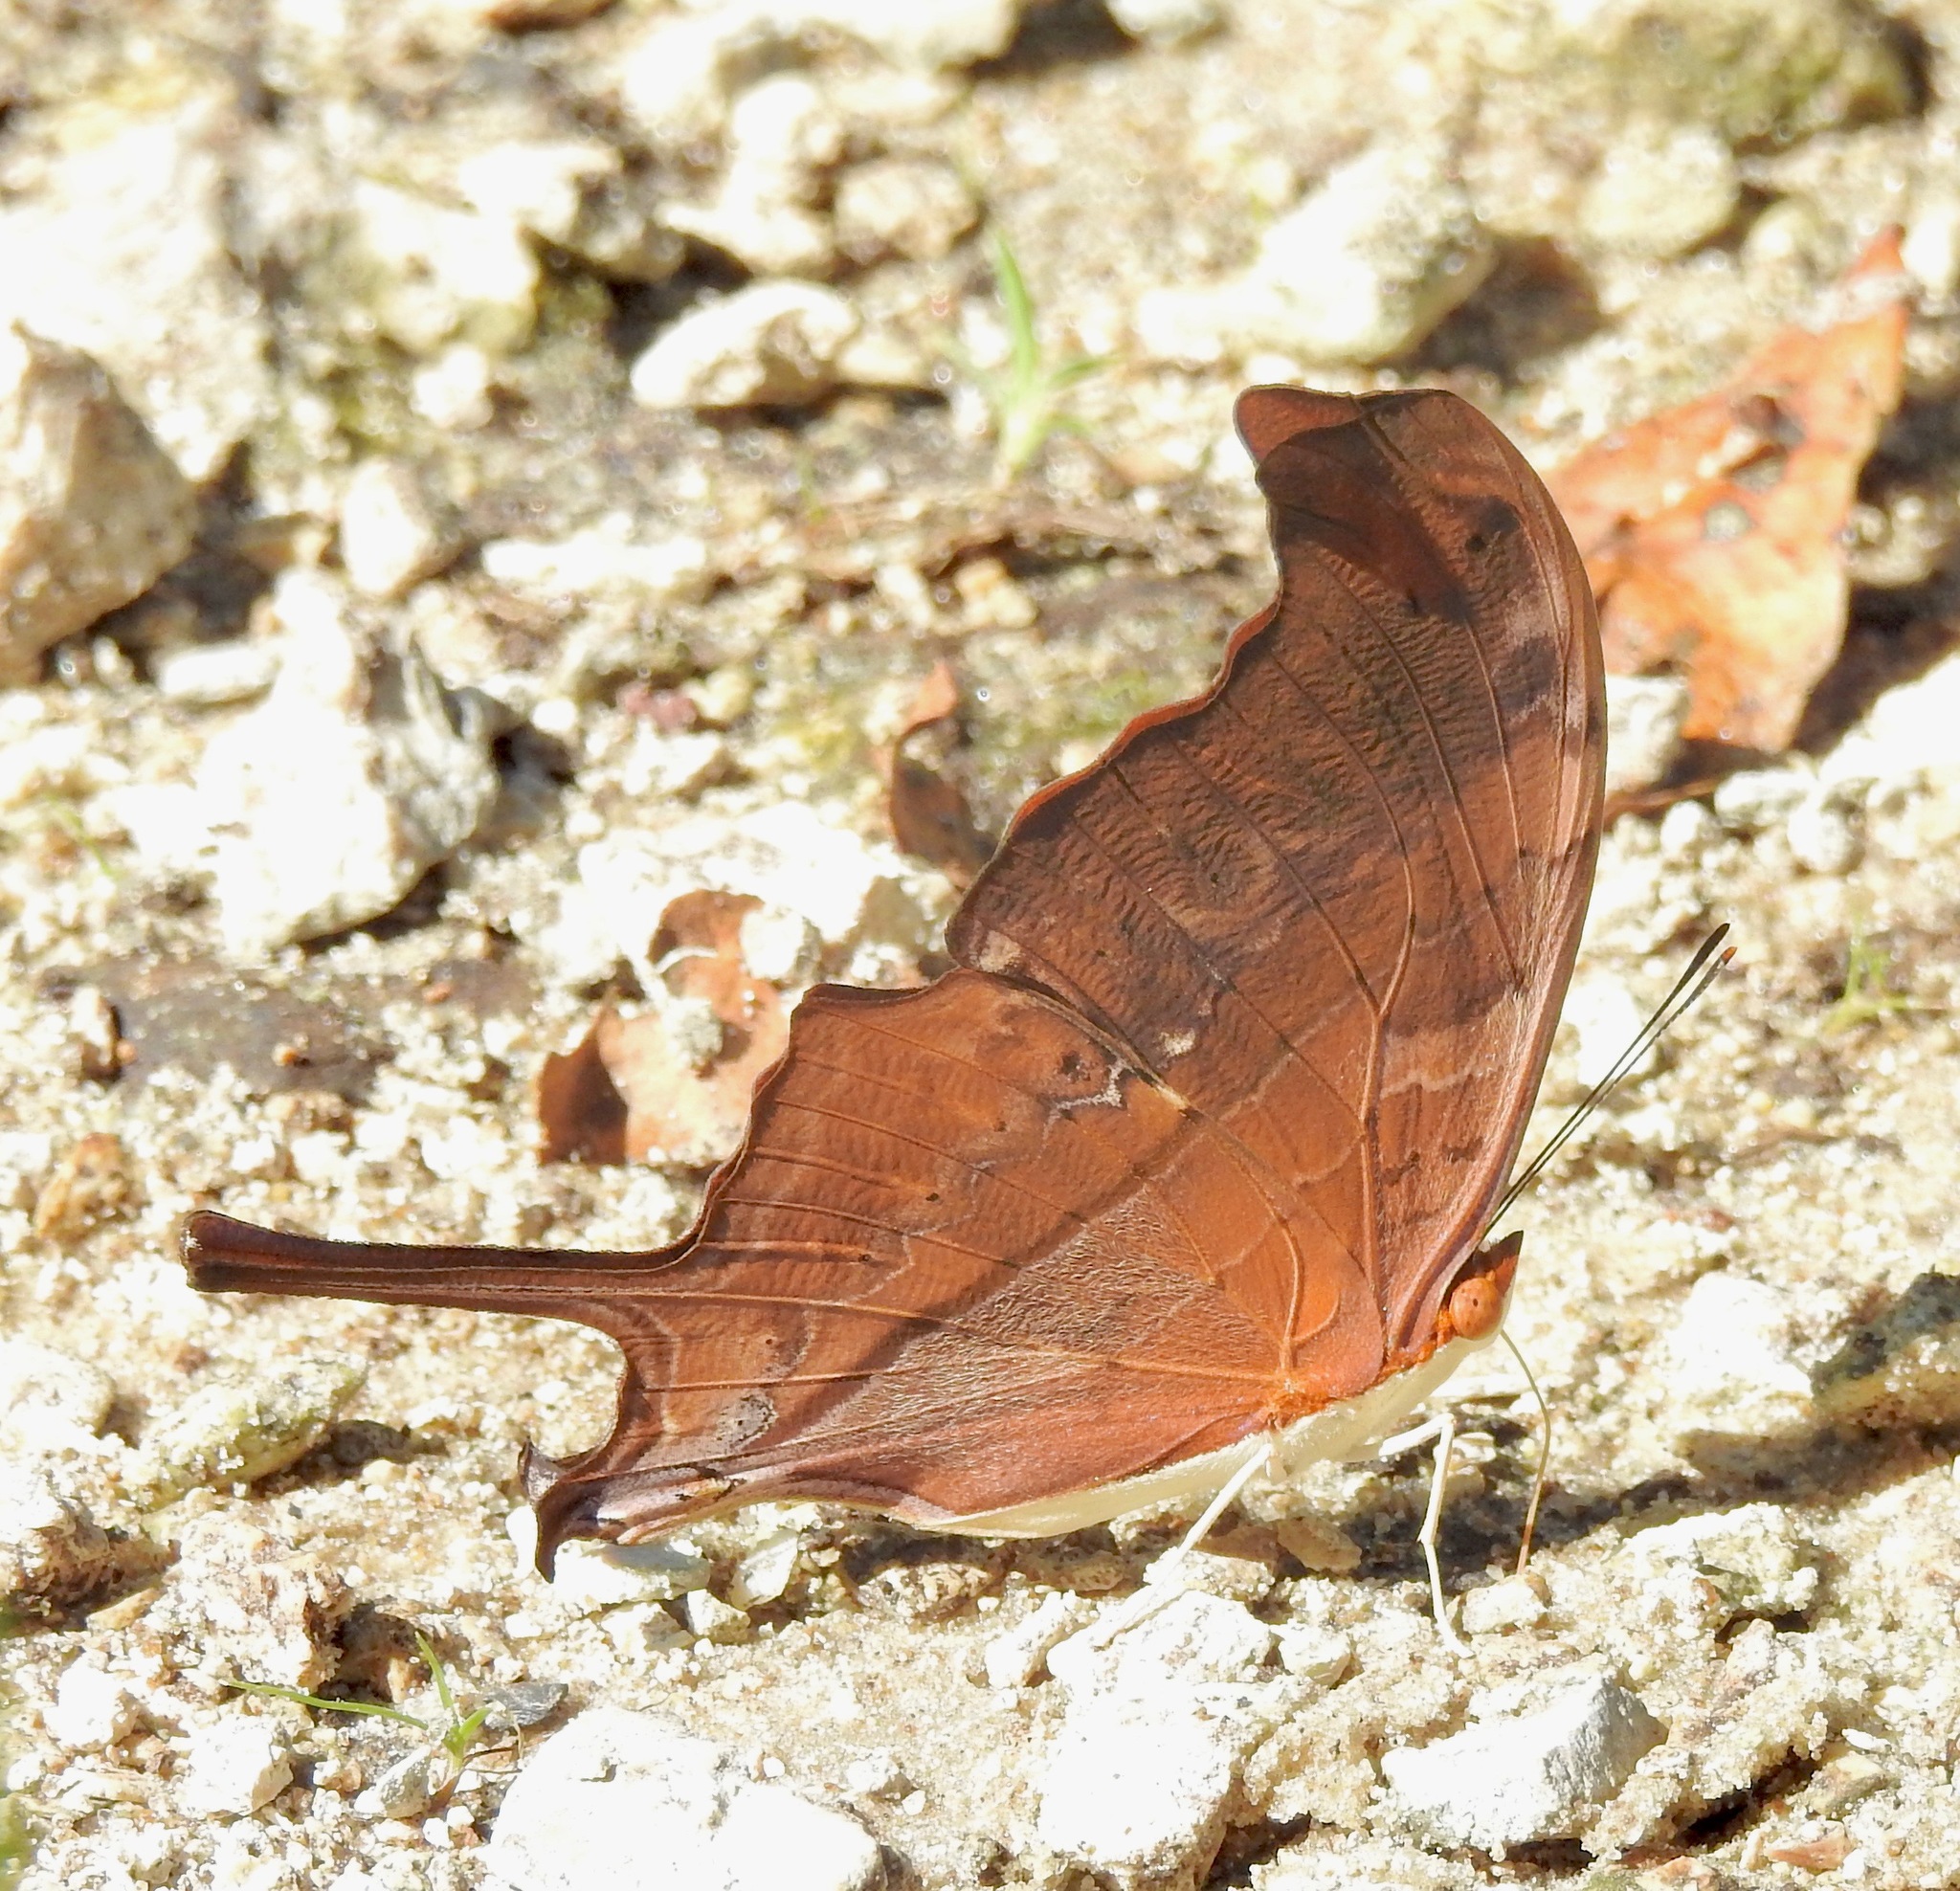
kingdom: Animalia
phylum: Arthropoda
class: Insecta
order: Lepidoptera
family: Nymphalidae
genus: Marpesia
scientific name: Marpesia petreus
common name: Red dagger wing
